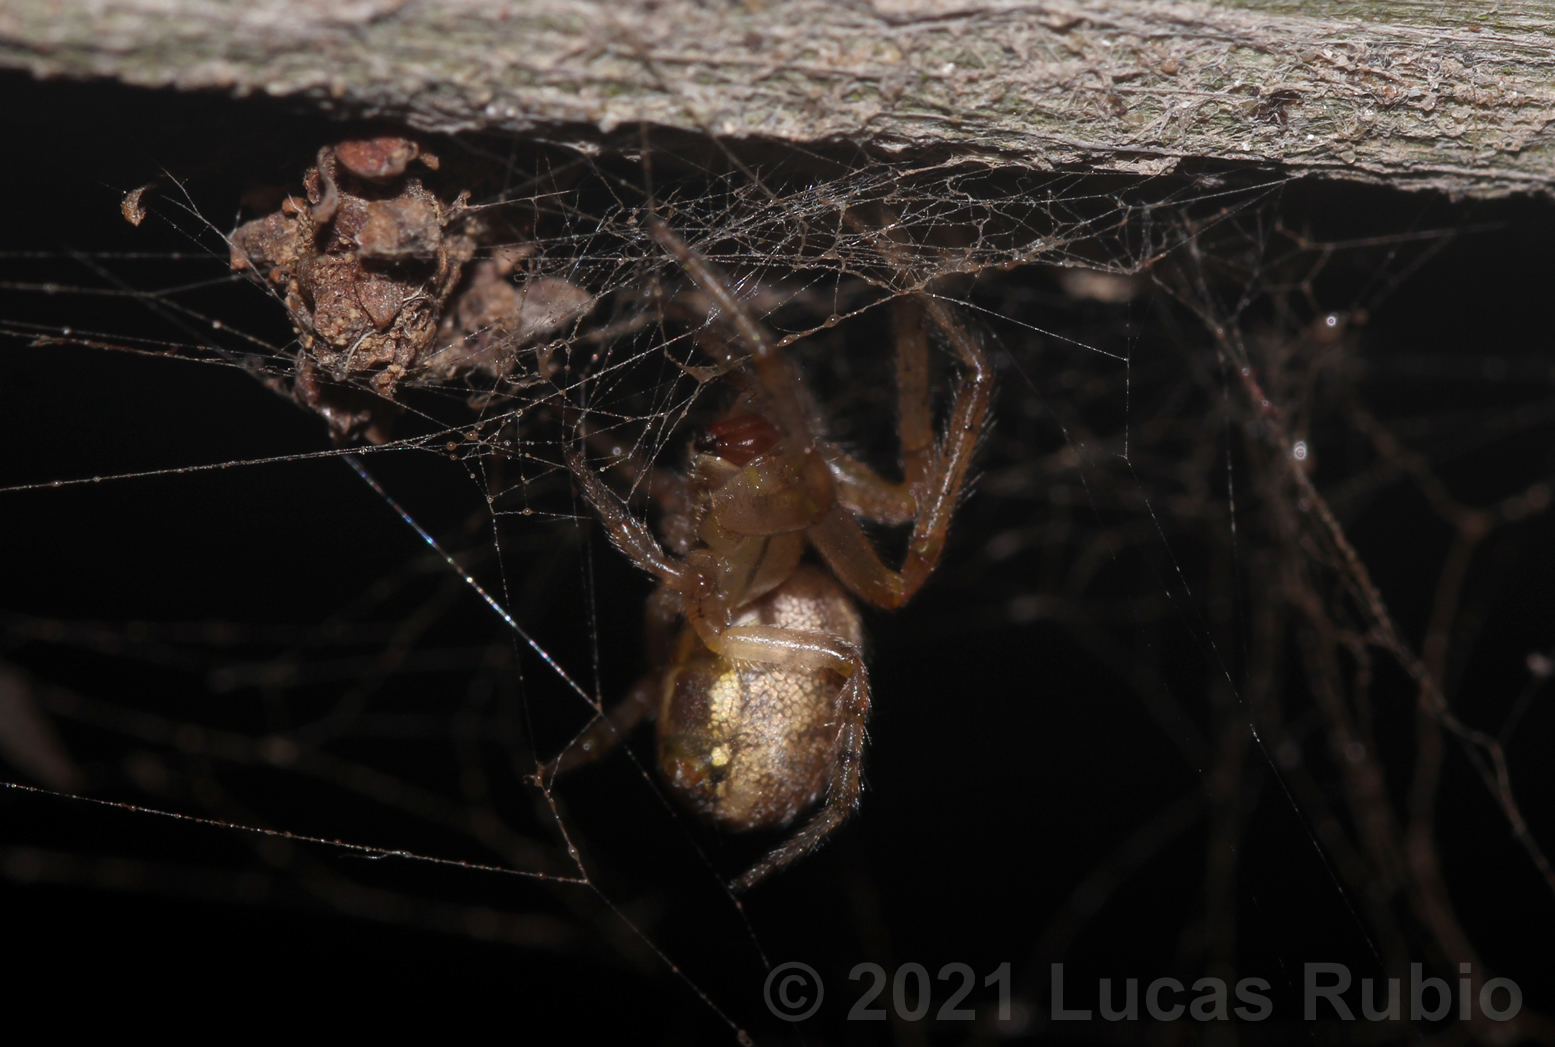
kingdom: Animalia
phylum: Arthropoda
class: Arachnida
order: Araneae
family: Araneidae
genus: Zygiella
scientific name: Zygiella x-notata
